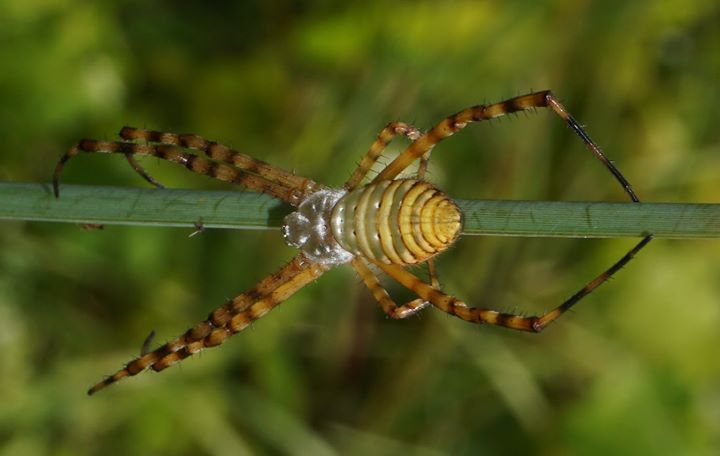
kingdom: Animalia
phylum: Arthropoda
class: Arachnida
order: Araneae
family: Araneidae
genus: Argiope
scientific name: Argiope trifasciata
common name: Banded garden spider
